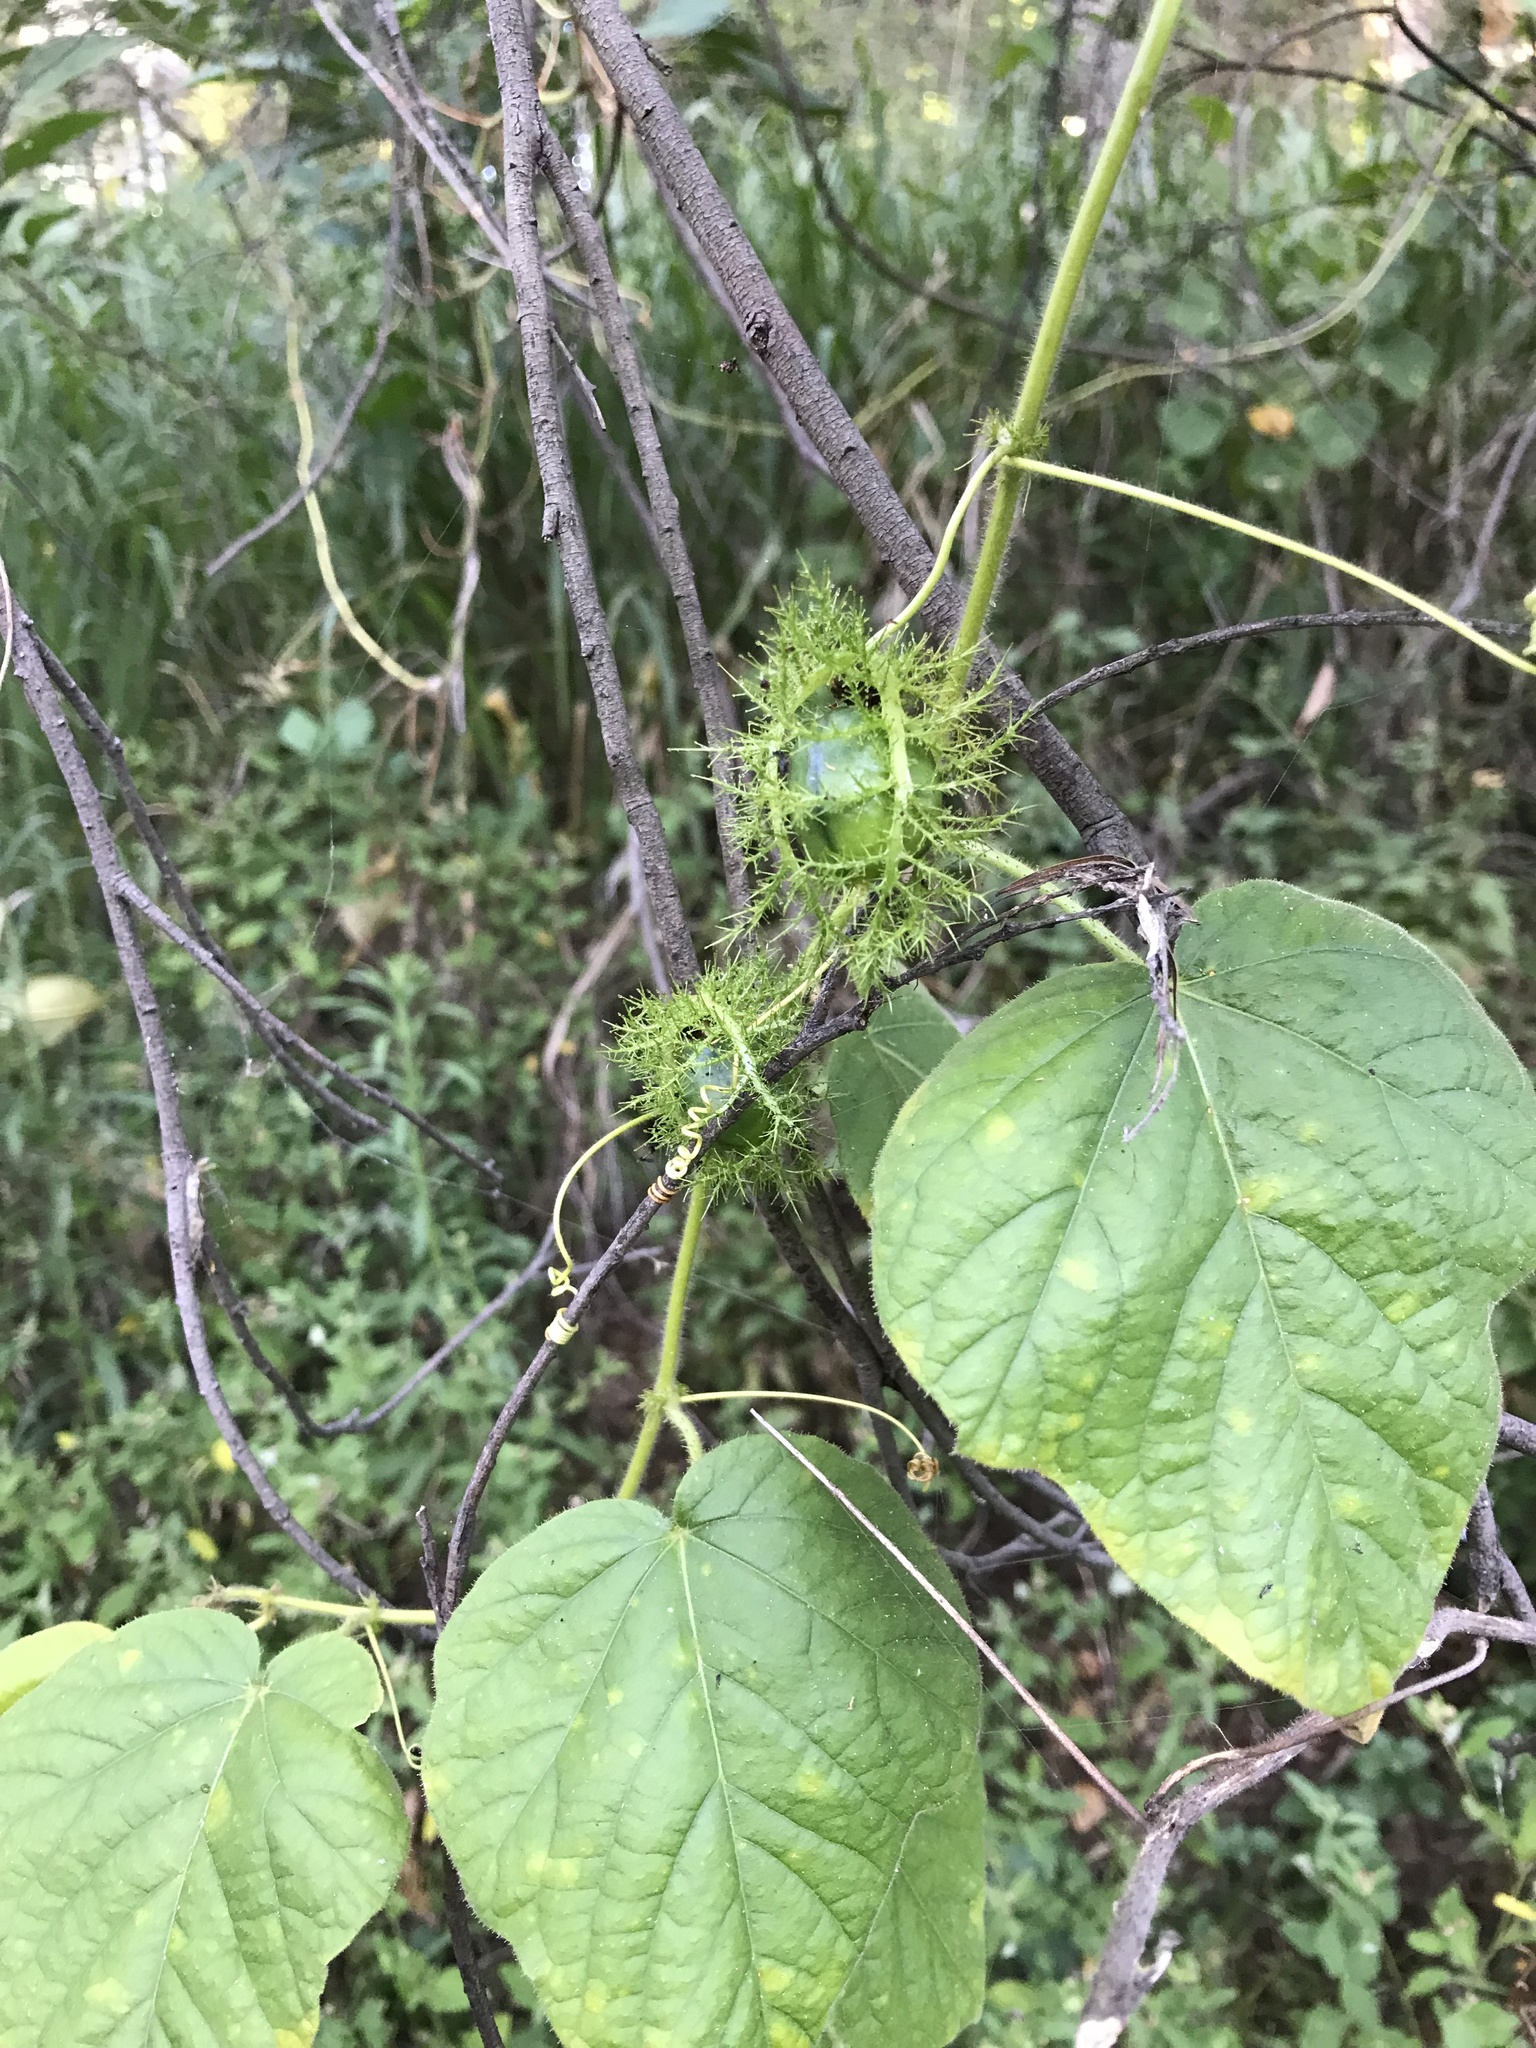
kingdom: Plantae
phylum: Tracheophyta
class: Magnoliopsida
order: Malpighiales
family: Passifloraceae
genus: Passiflora
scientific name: Passiflora foetida
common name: Fetid passionflower
